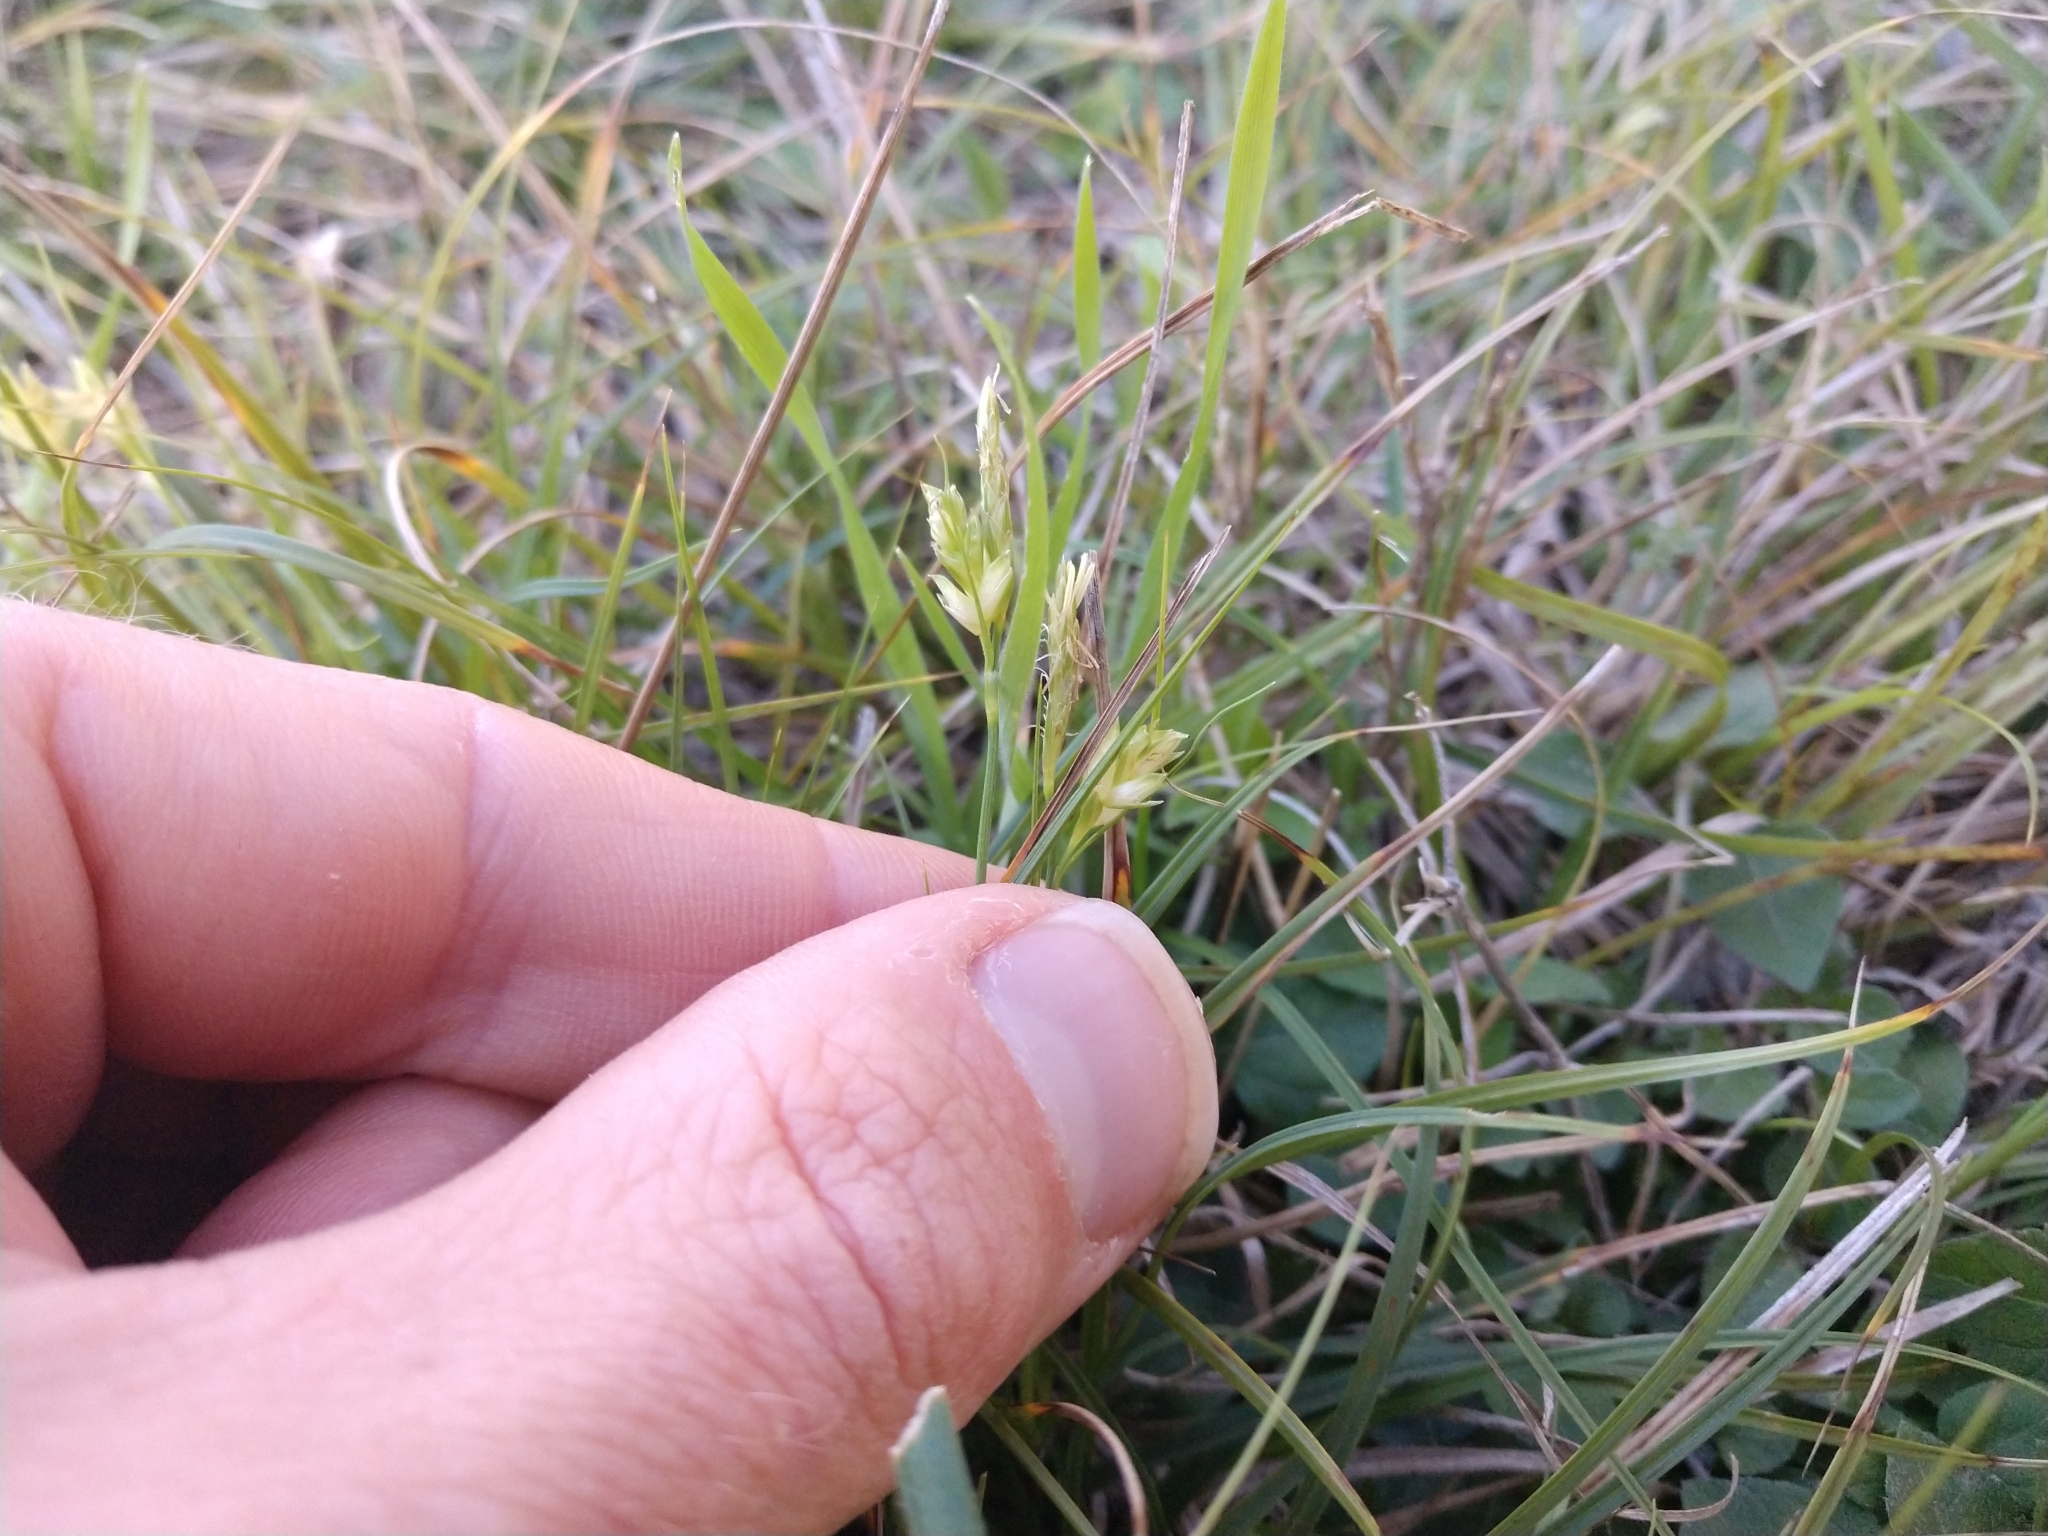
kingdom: Plantae
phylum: Tracheophyta
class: Liliopsida
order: Poales
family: Cyperaceae
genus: Carex
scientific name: Carex planostachys
